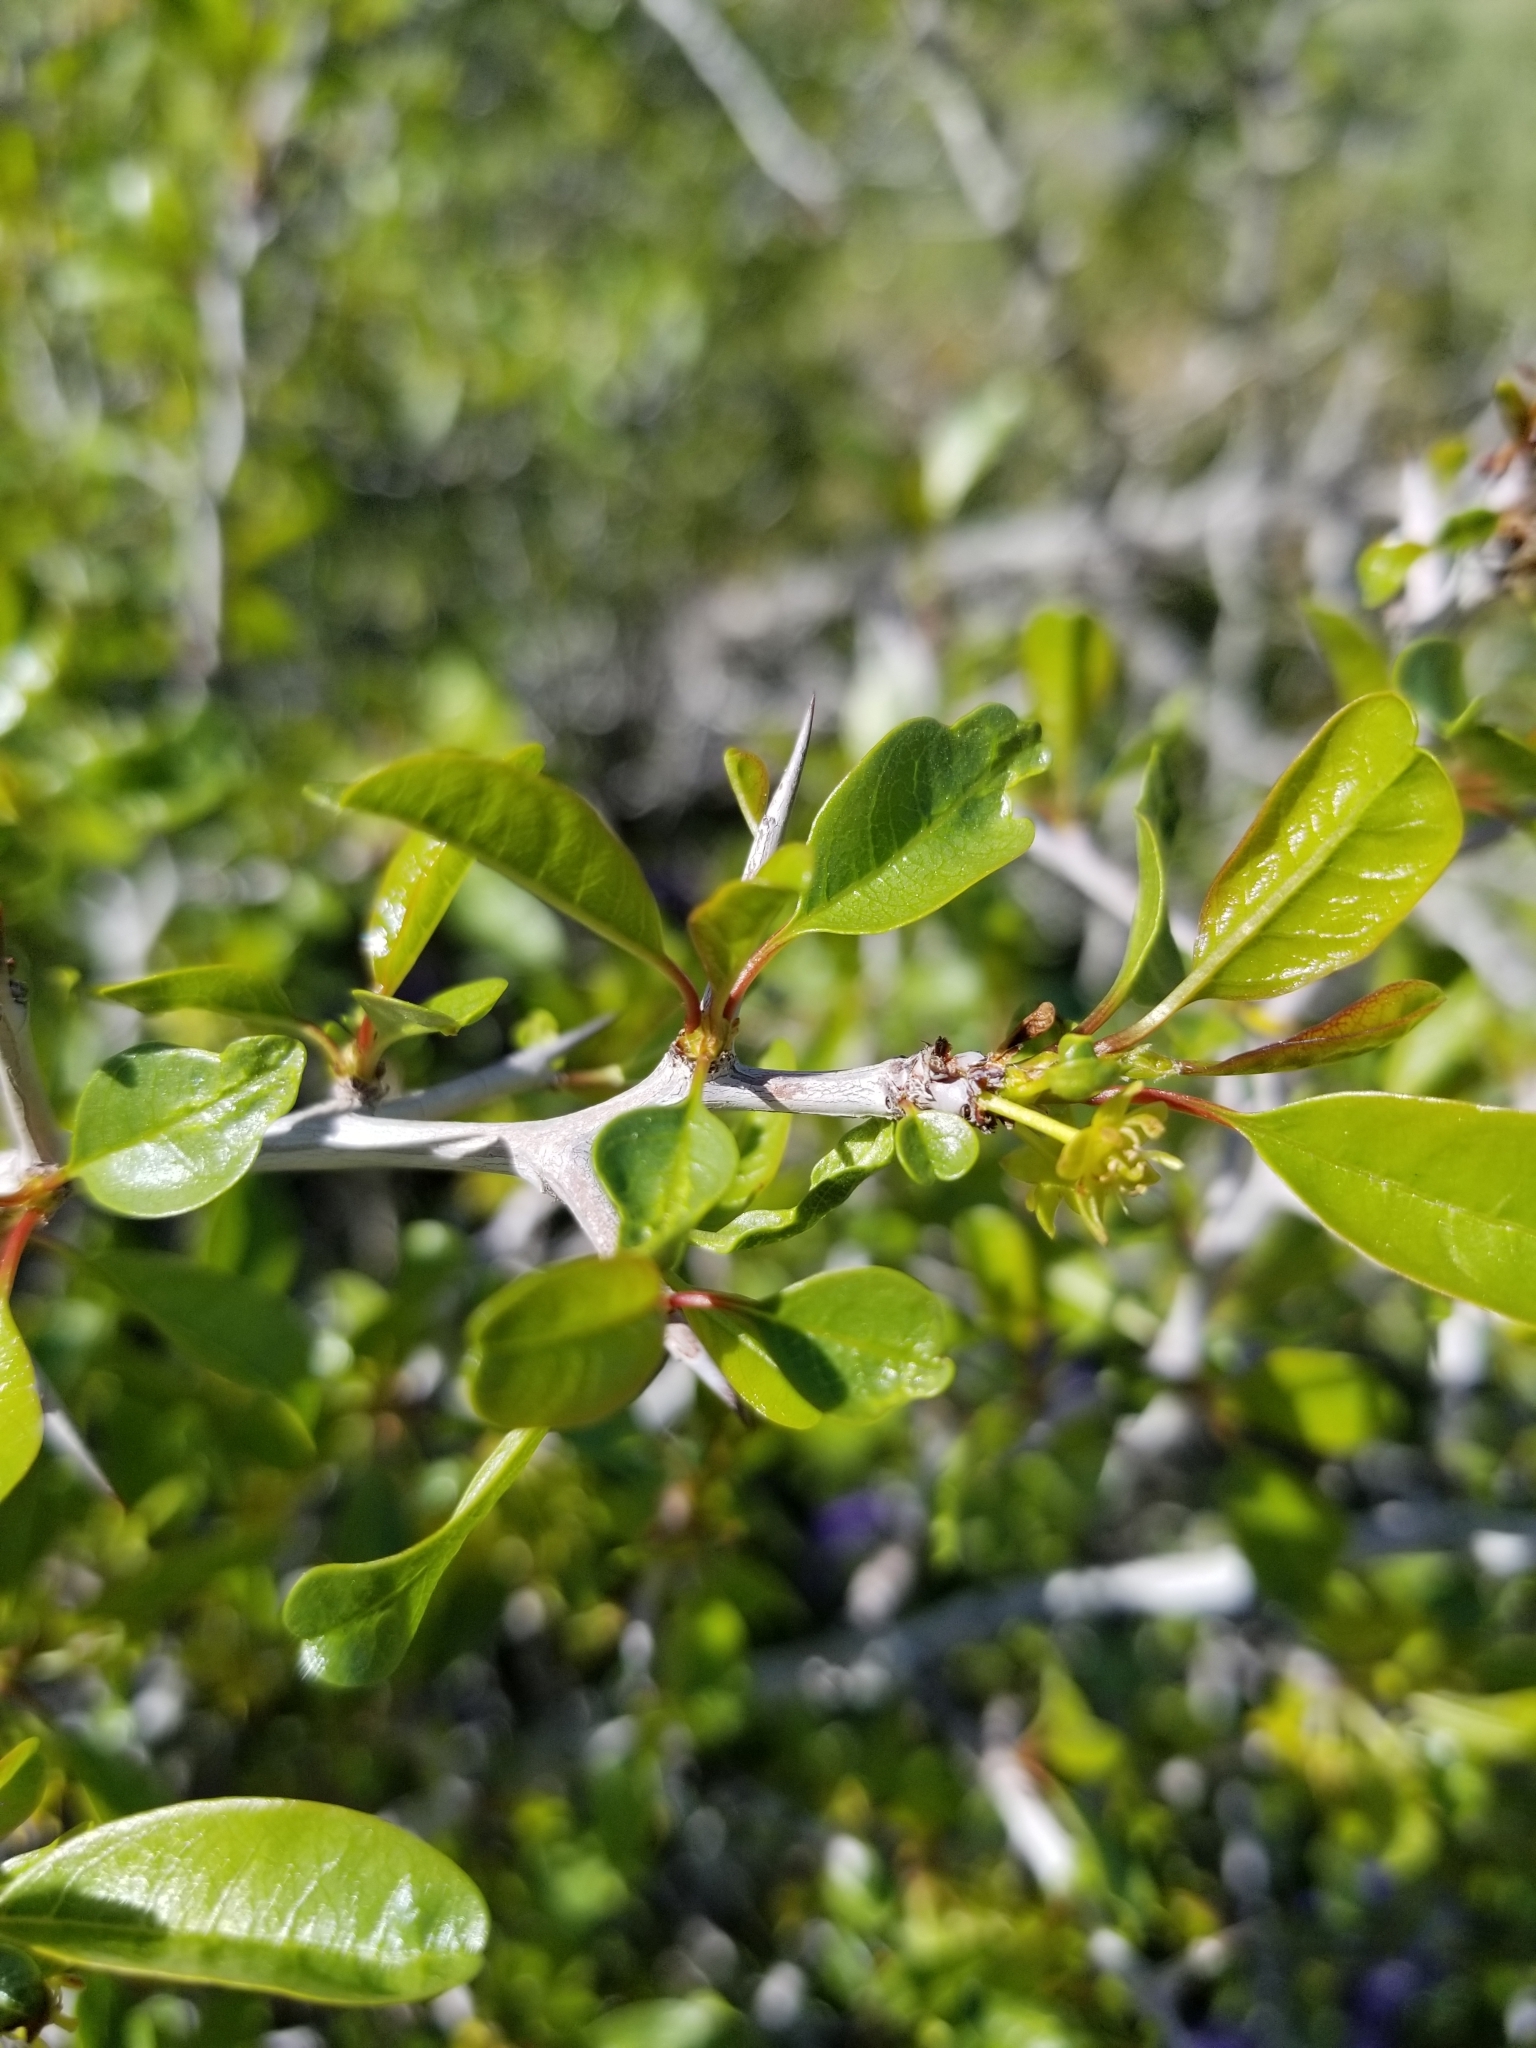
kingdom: Plantae
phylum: Tracheophyta
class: Magnoliopsida
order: Rosales
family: Rhamnaceae
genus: Pseudoziziphus
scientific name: Pseudoziziphus parryi
